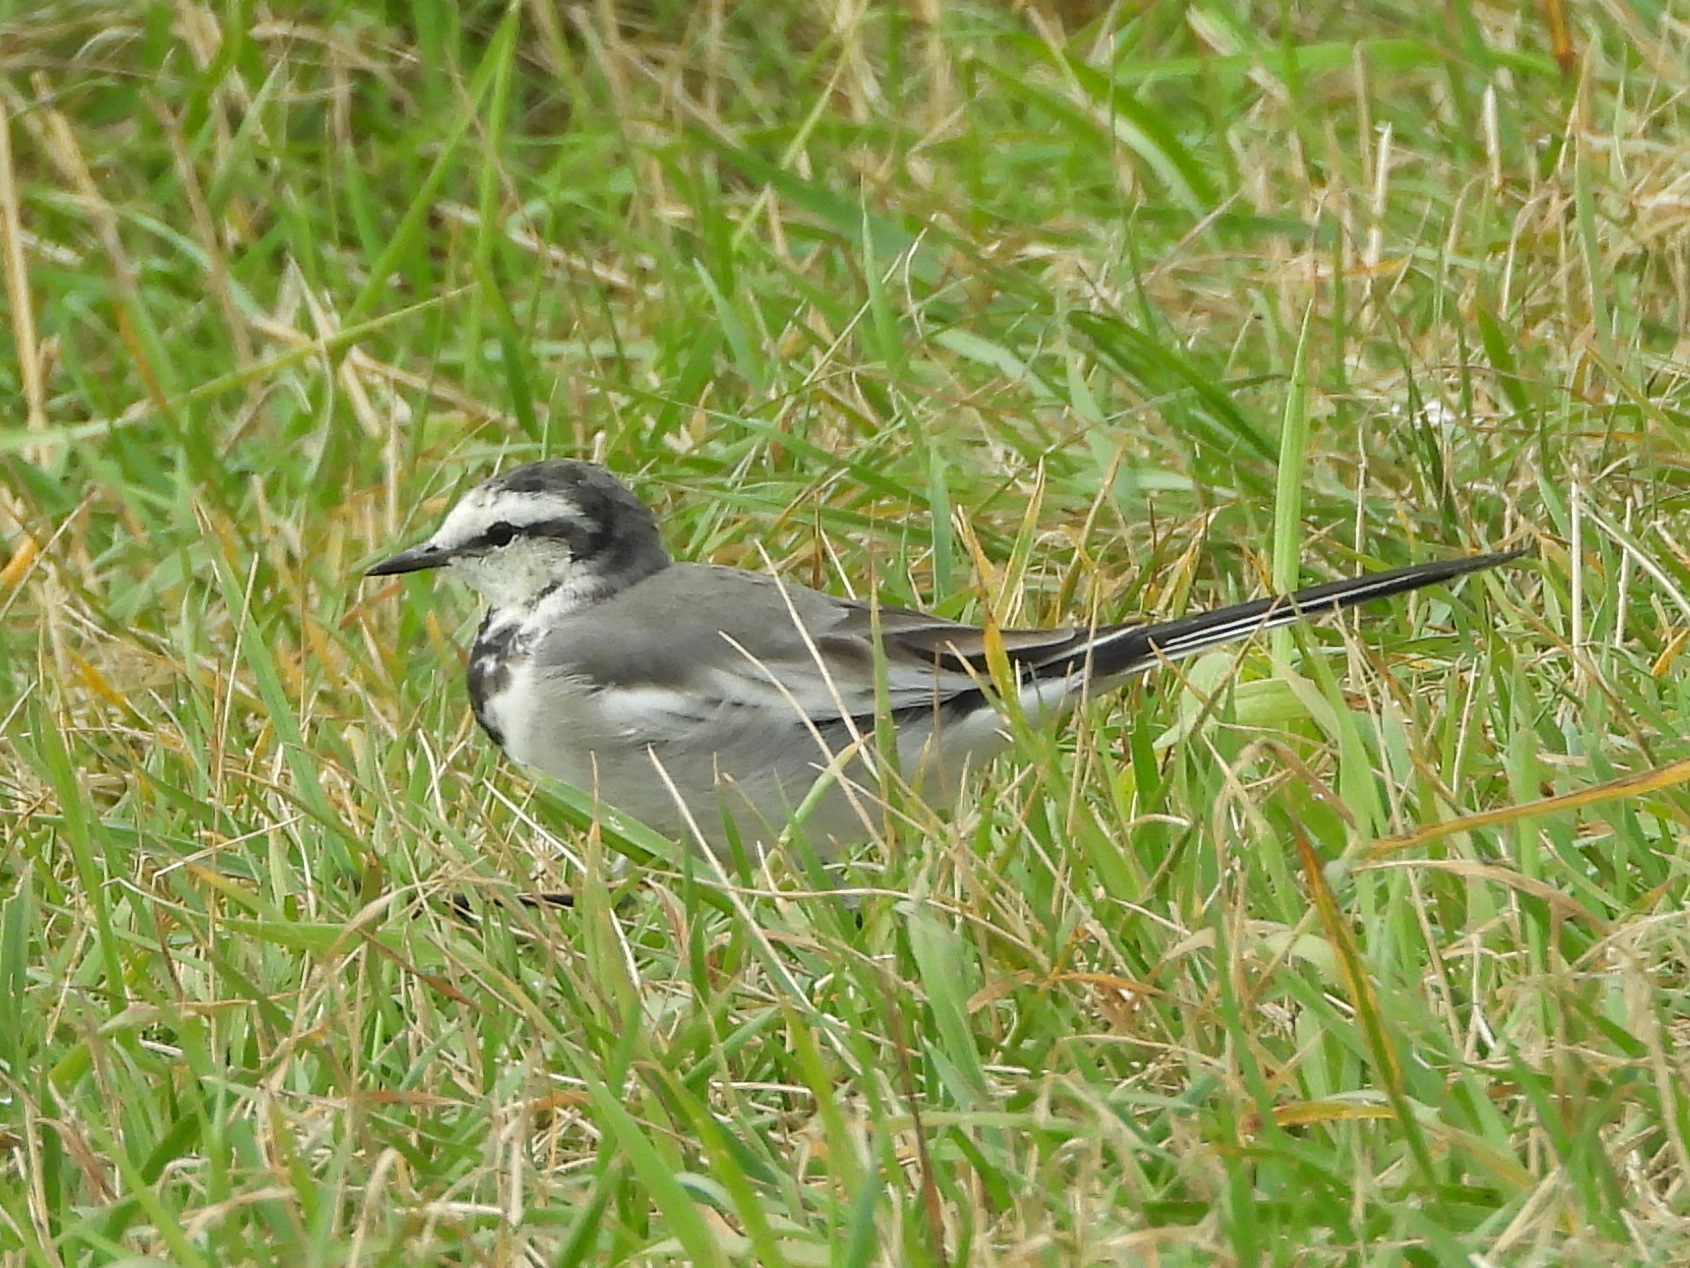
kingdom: Animalia
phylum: Chordata
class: Aves
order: Passeriformes
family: Motacillidae
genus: Motacilla
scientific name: Motacilla alba
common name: White wagtail
